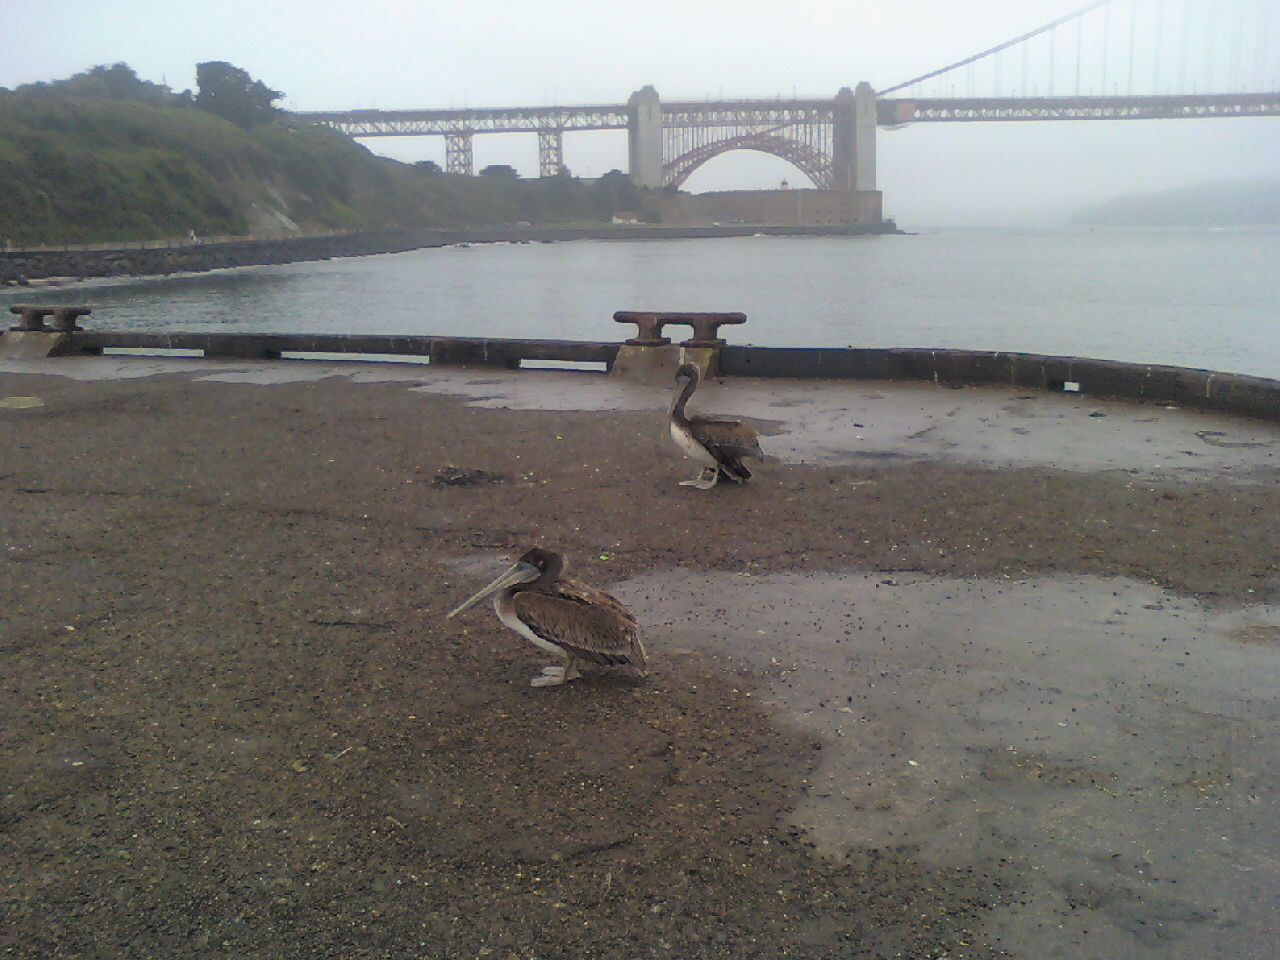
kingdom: Animalia
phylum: Chordata
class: Aves
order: Pelecaniformes
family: Pelecanidae
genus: Pelecanus
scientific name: Pelecanus occidentalis
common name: Brown pelican
